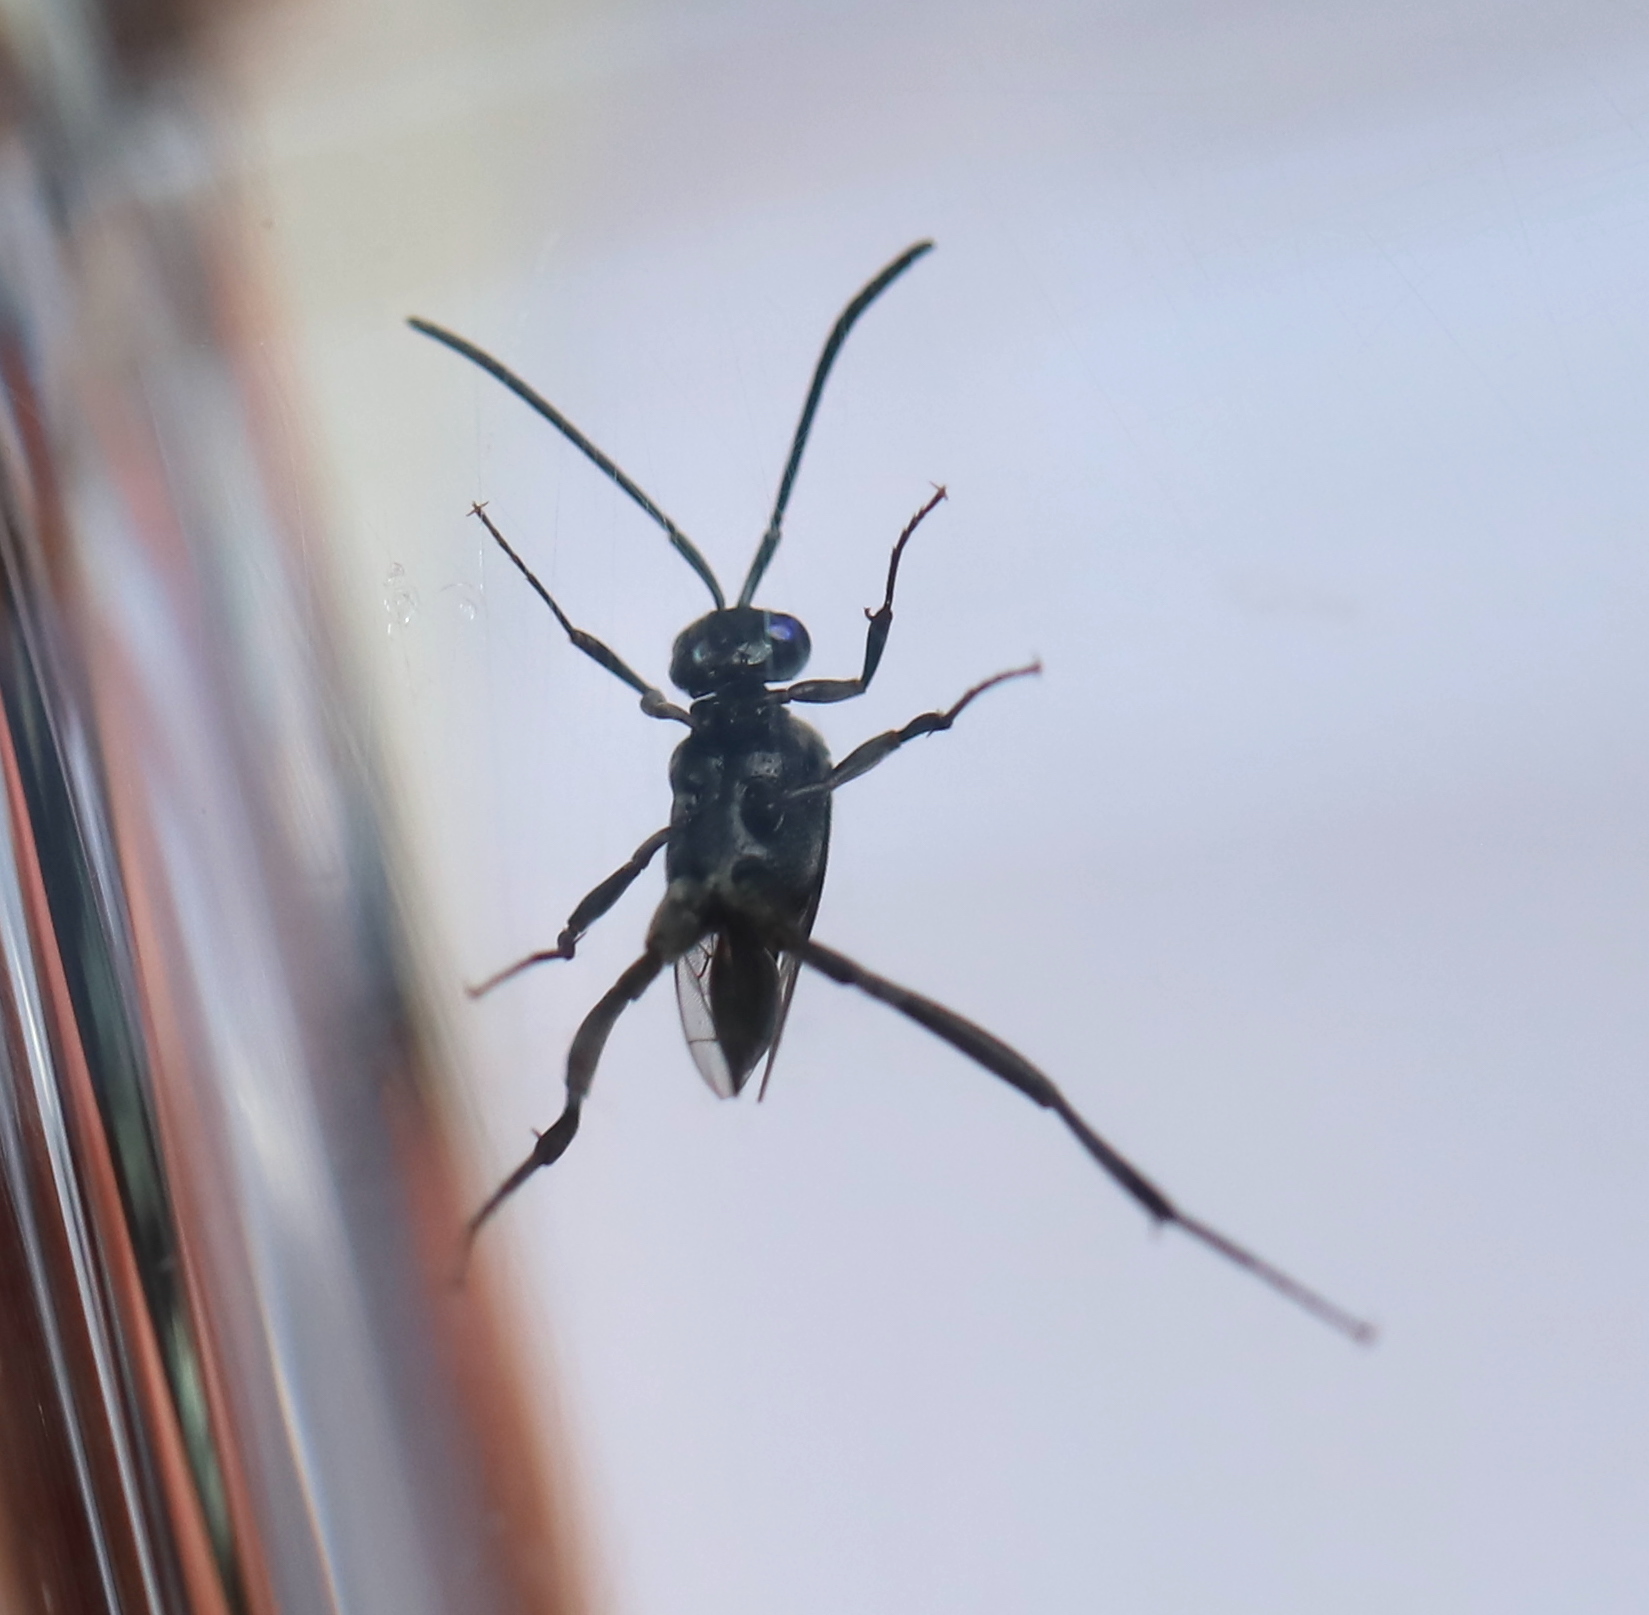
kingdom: Animalia
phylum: Arthropoda
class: Insecta
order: Hymenoptera
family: Evaniidae
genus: Evania
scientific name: Evania appendigaster
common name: Ensign wasp
